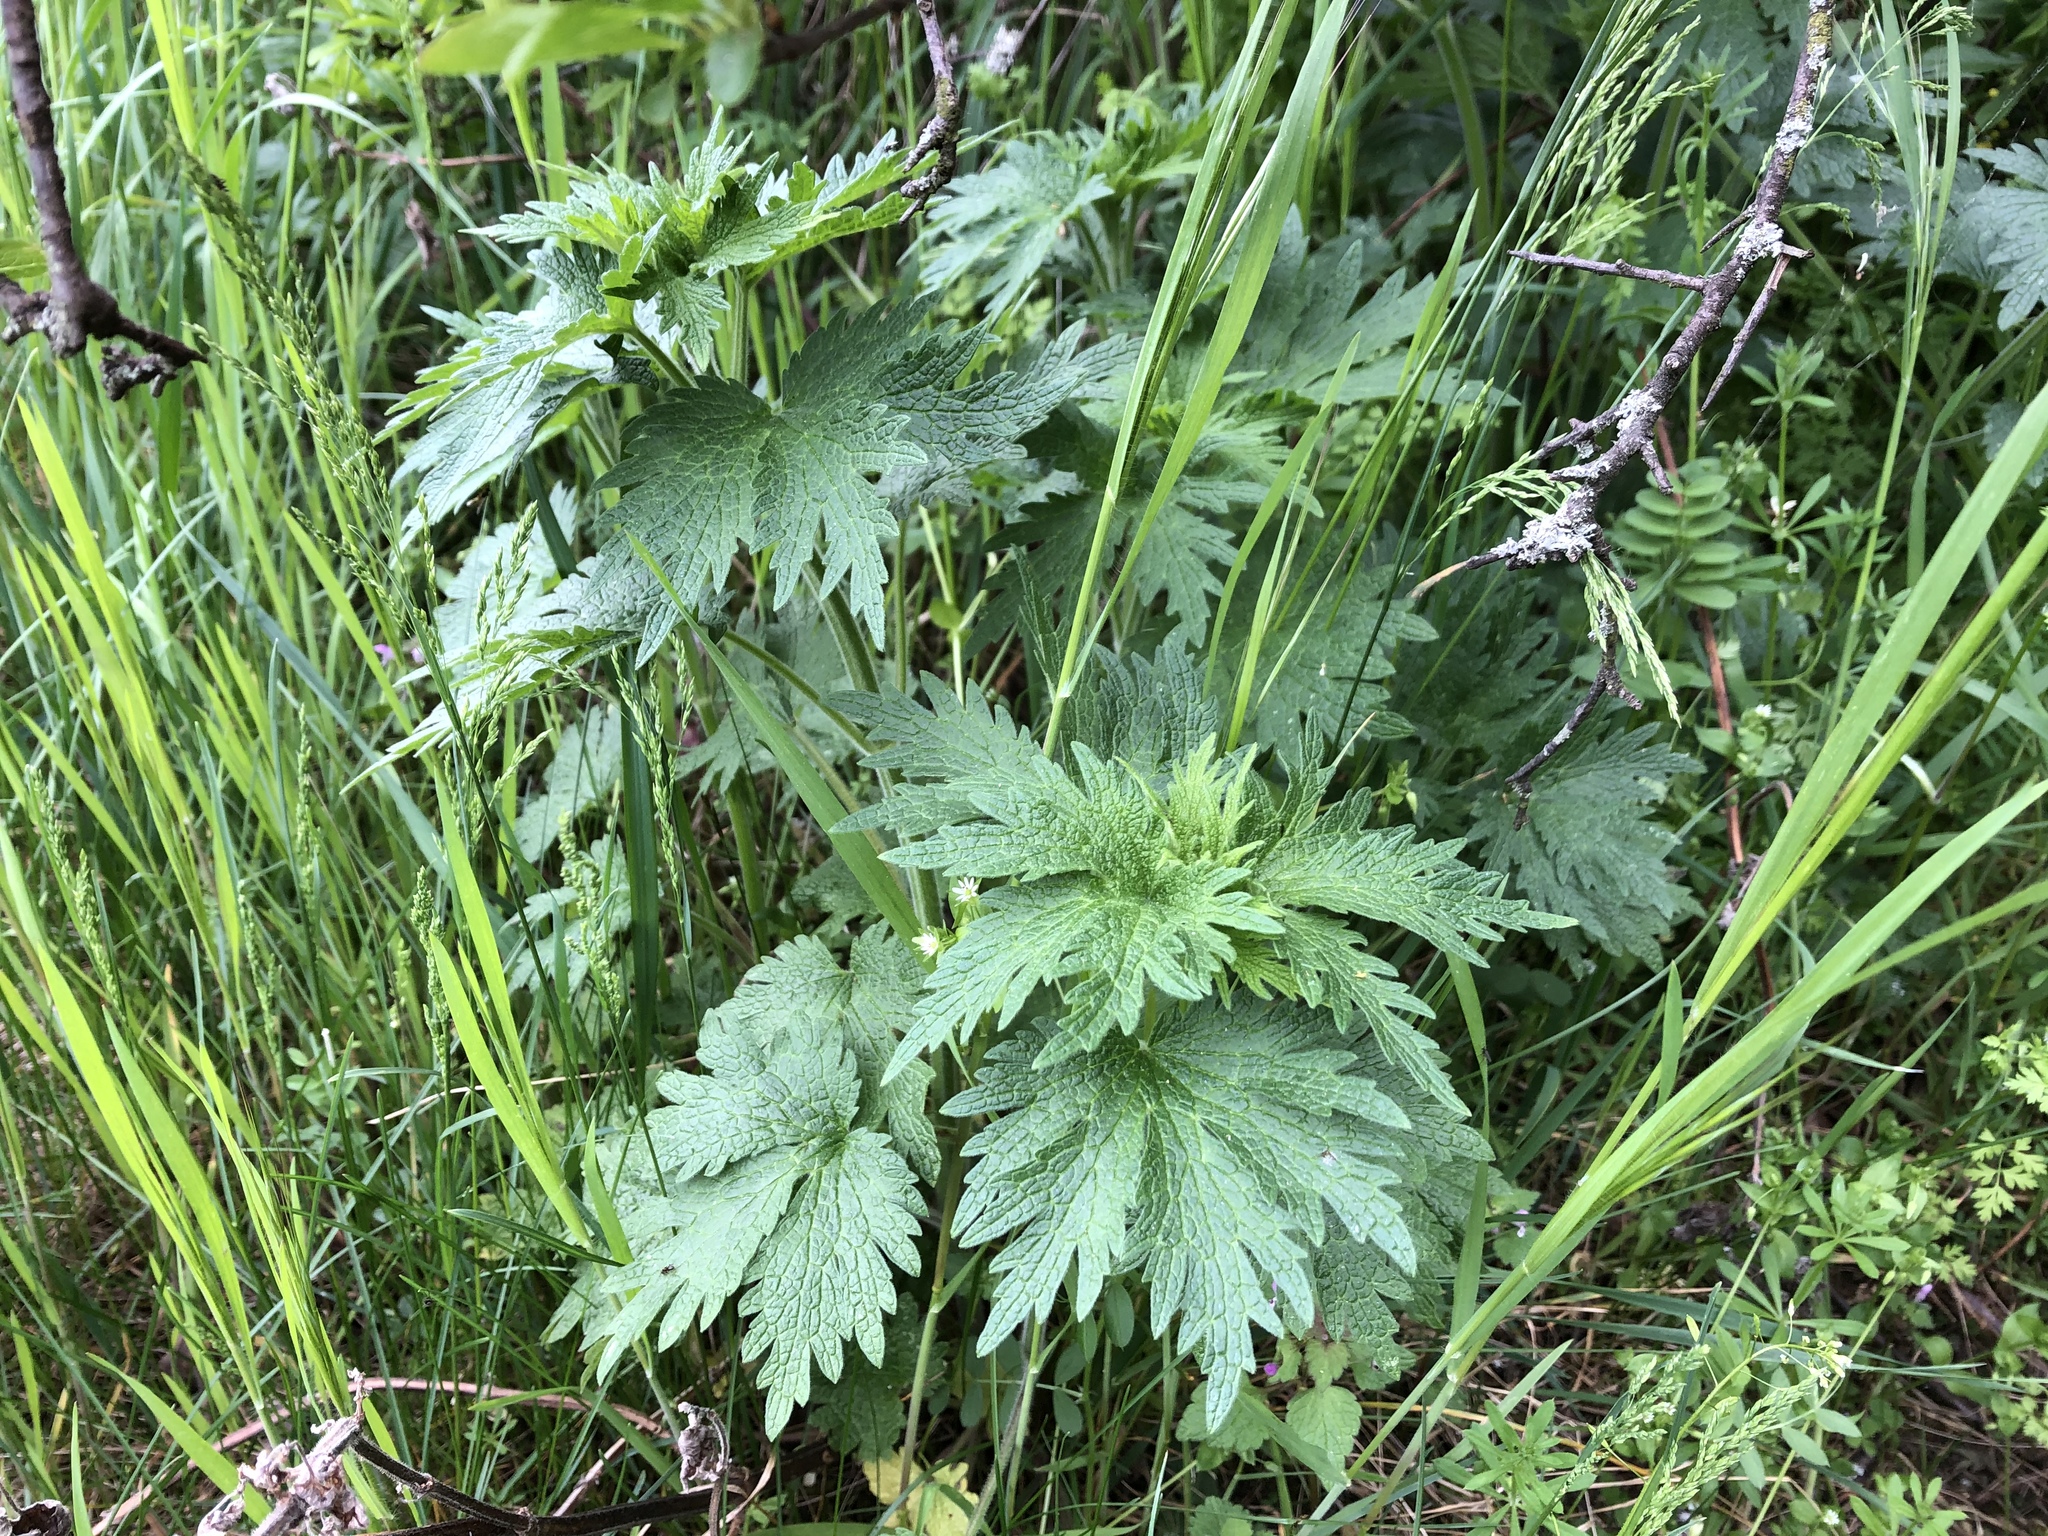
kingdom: Plantae
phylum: Tracheophyta
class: Magnoliopsida
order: Lamiales
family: Lamiaceae
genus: Leonurus
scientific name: Leonurus cardiaca
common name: Motherwort
